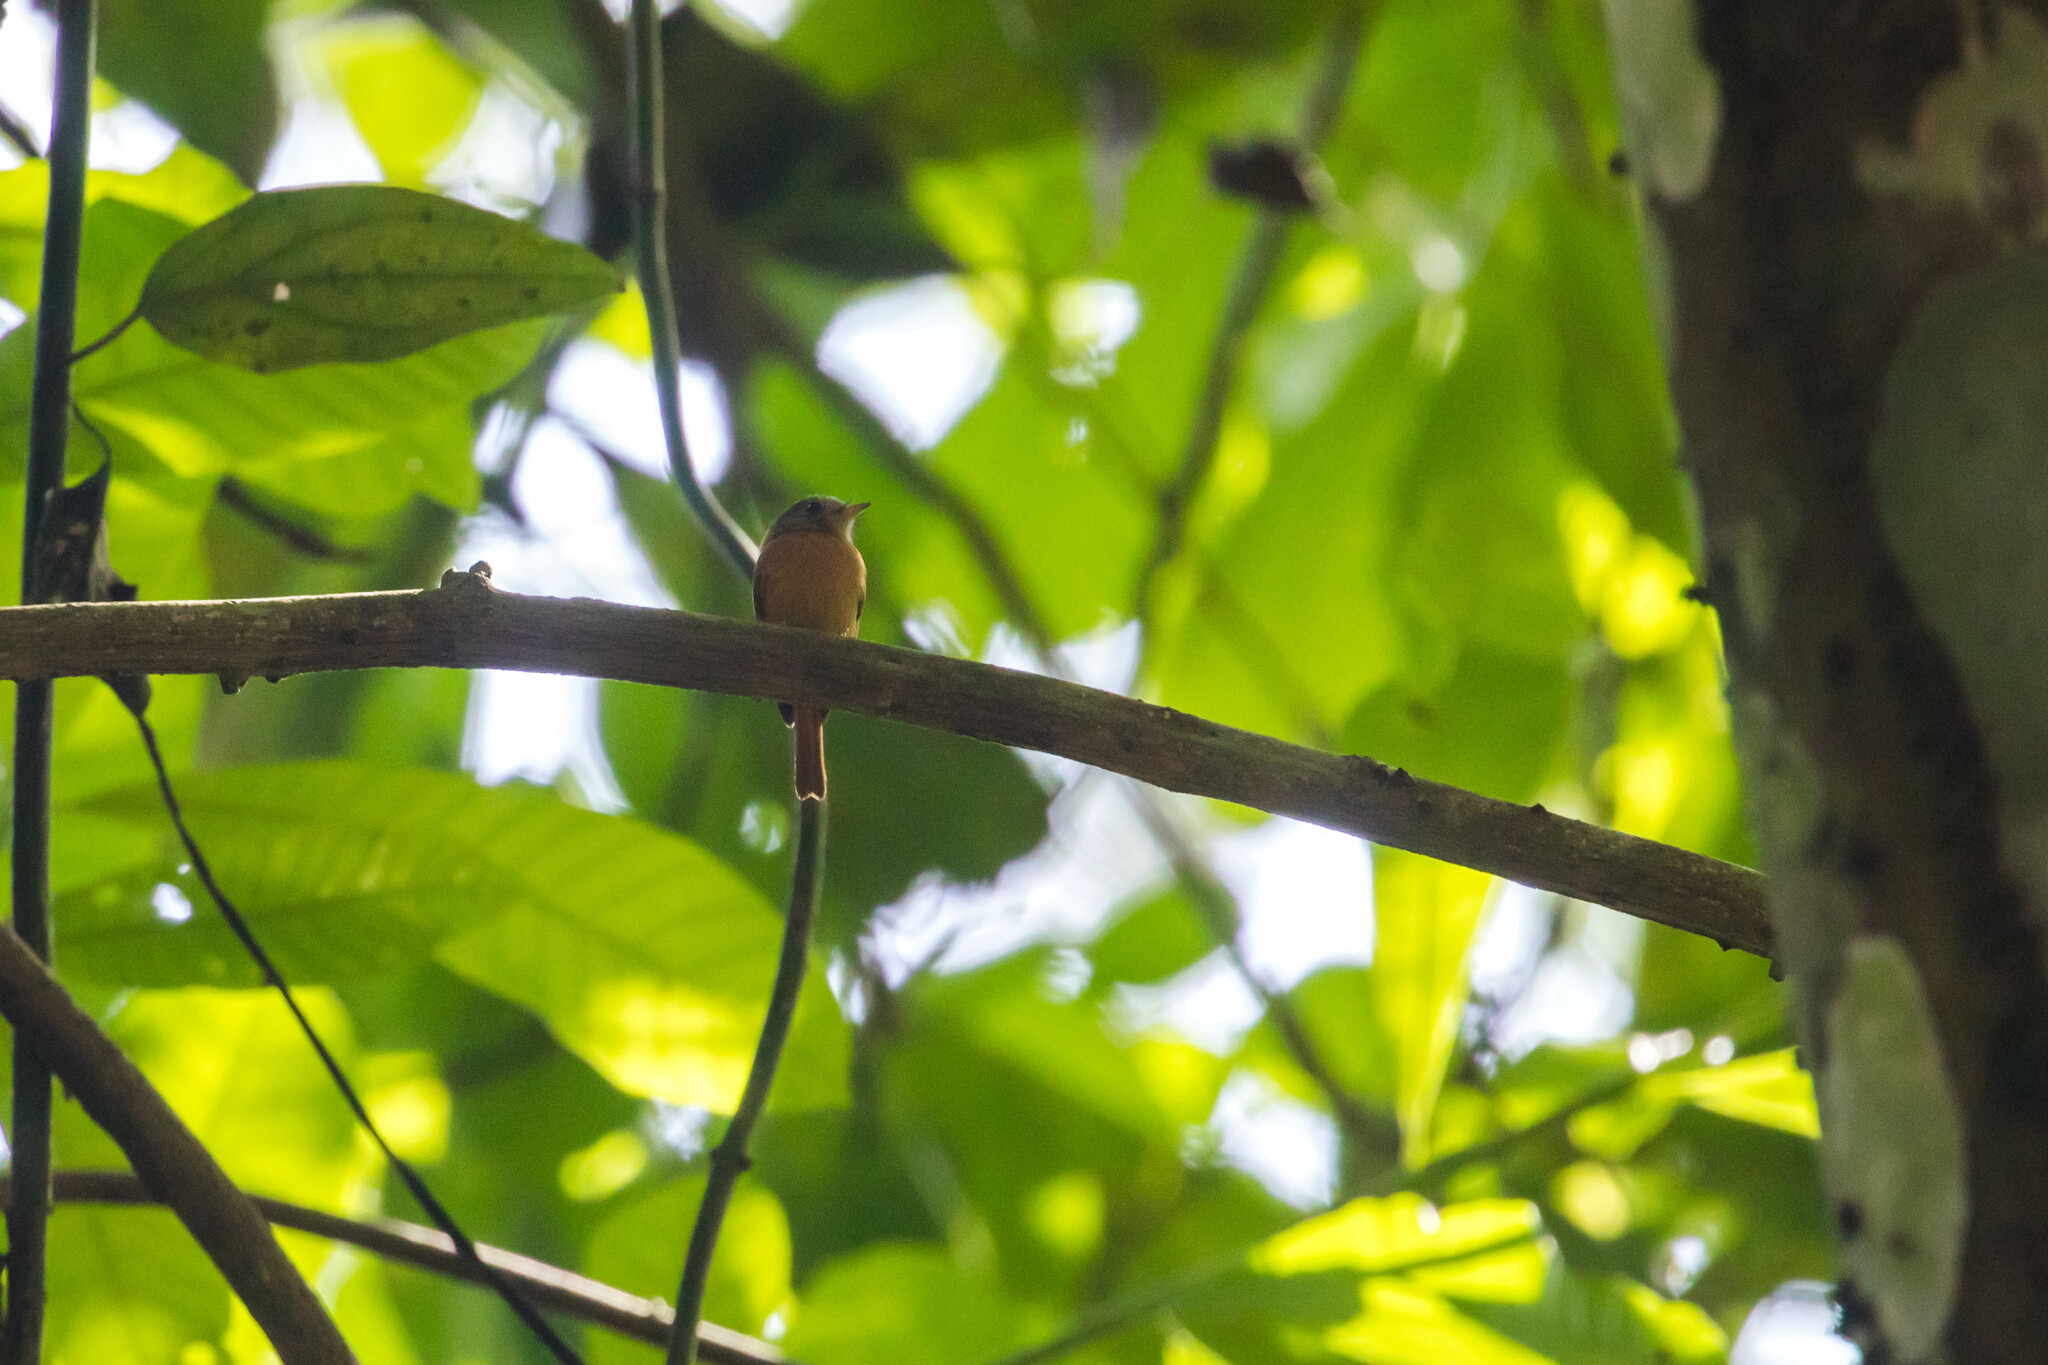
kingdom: Animalia
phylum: Chordata
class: Aves
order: Passeriformes
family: Tyrannidae
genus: Terenotriccus
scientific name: Terenotriccus erythrurus
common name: Ruddy-tailed flycatcher
